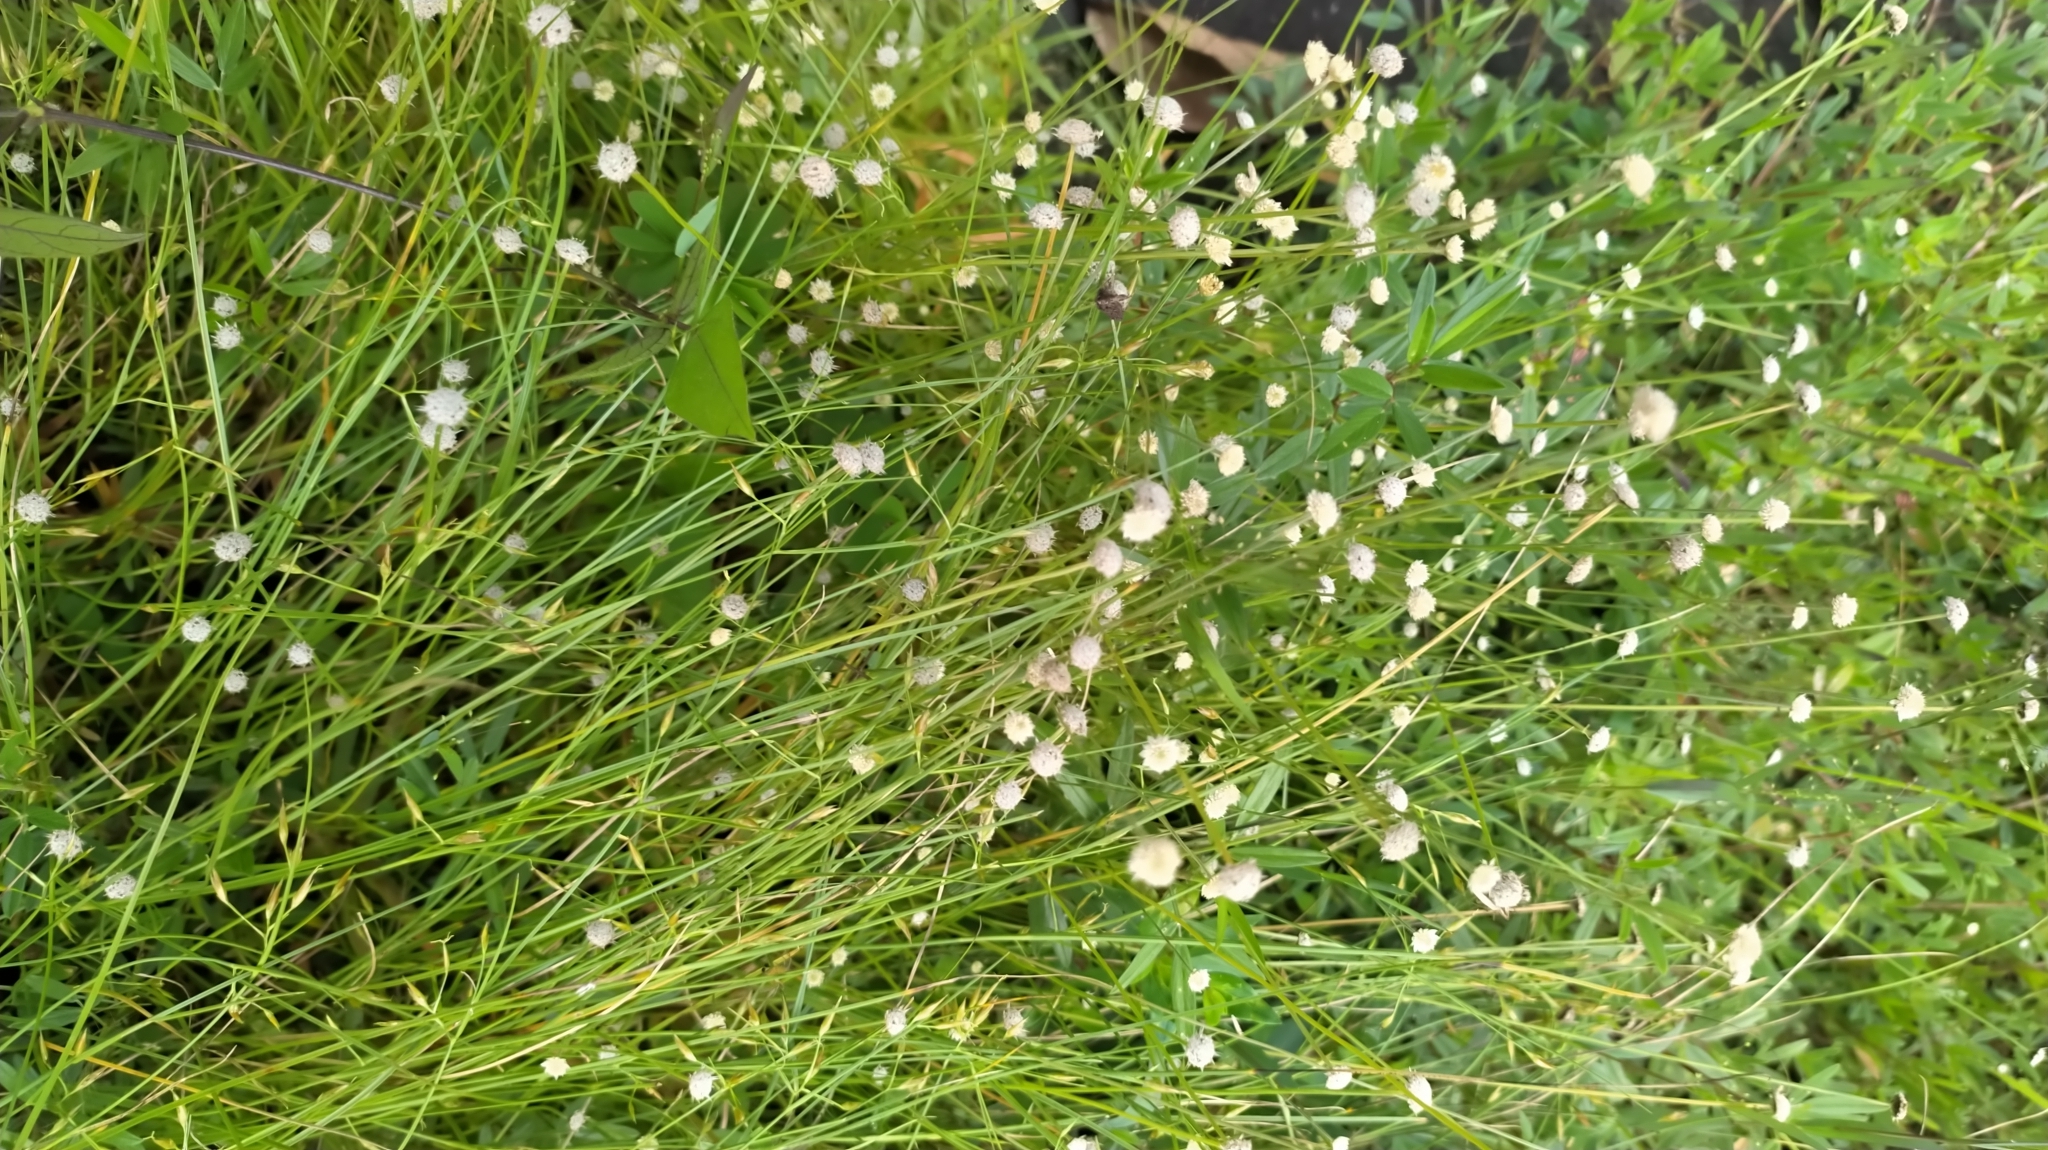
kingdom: Plantae
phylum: Tracheophyta
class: Liliopsida
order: Poales
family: Eriocaulaceae
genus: Paepalanthus
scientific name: Paepalanthus oyapockensis
